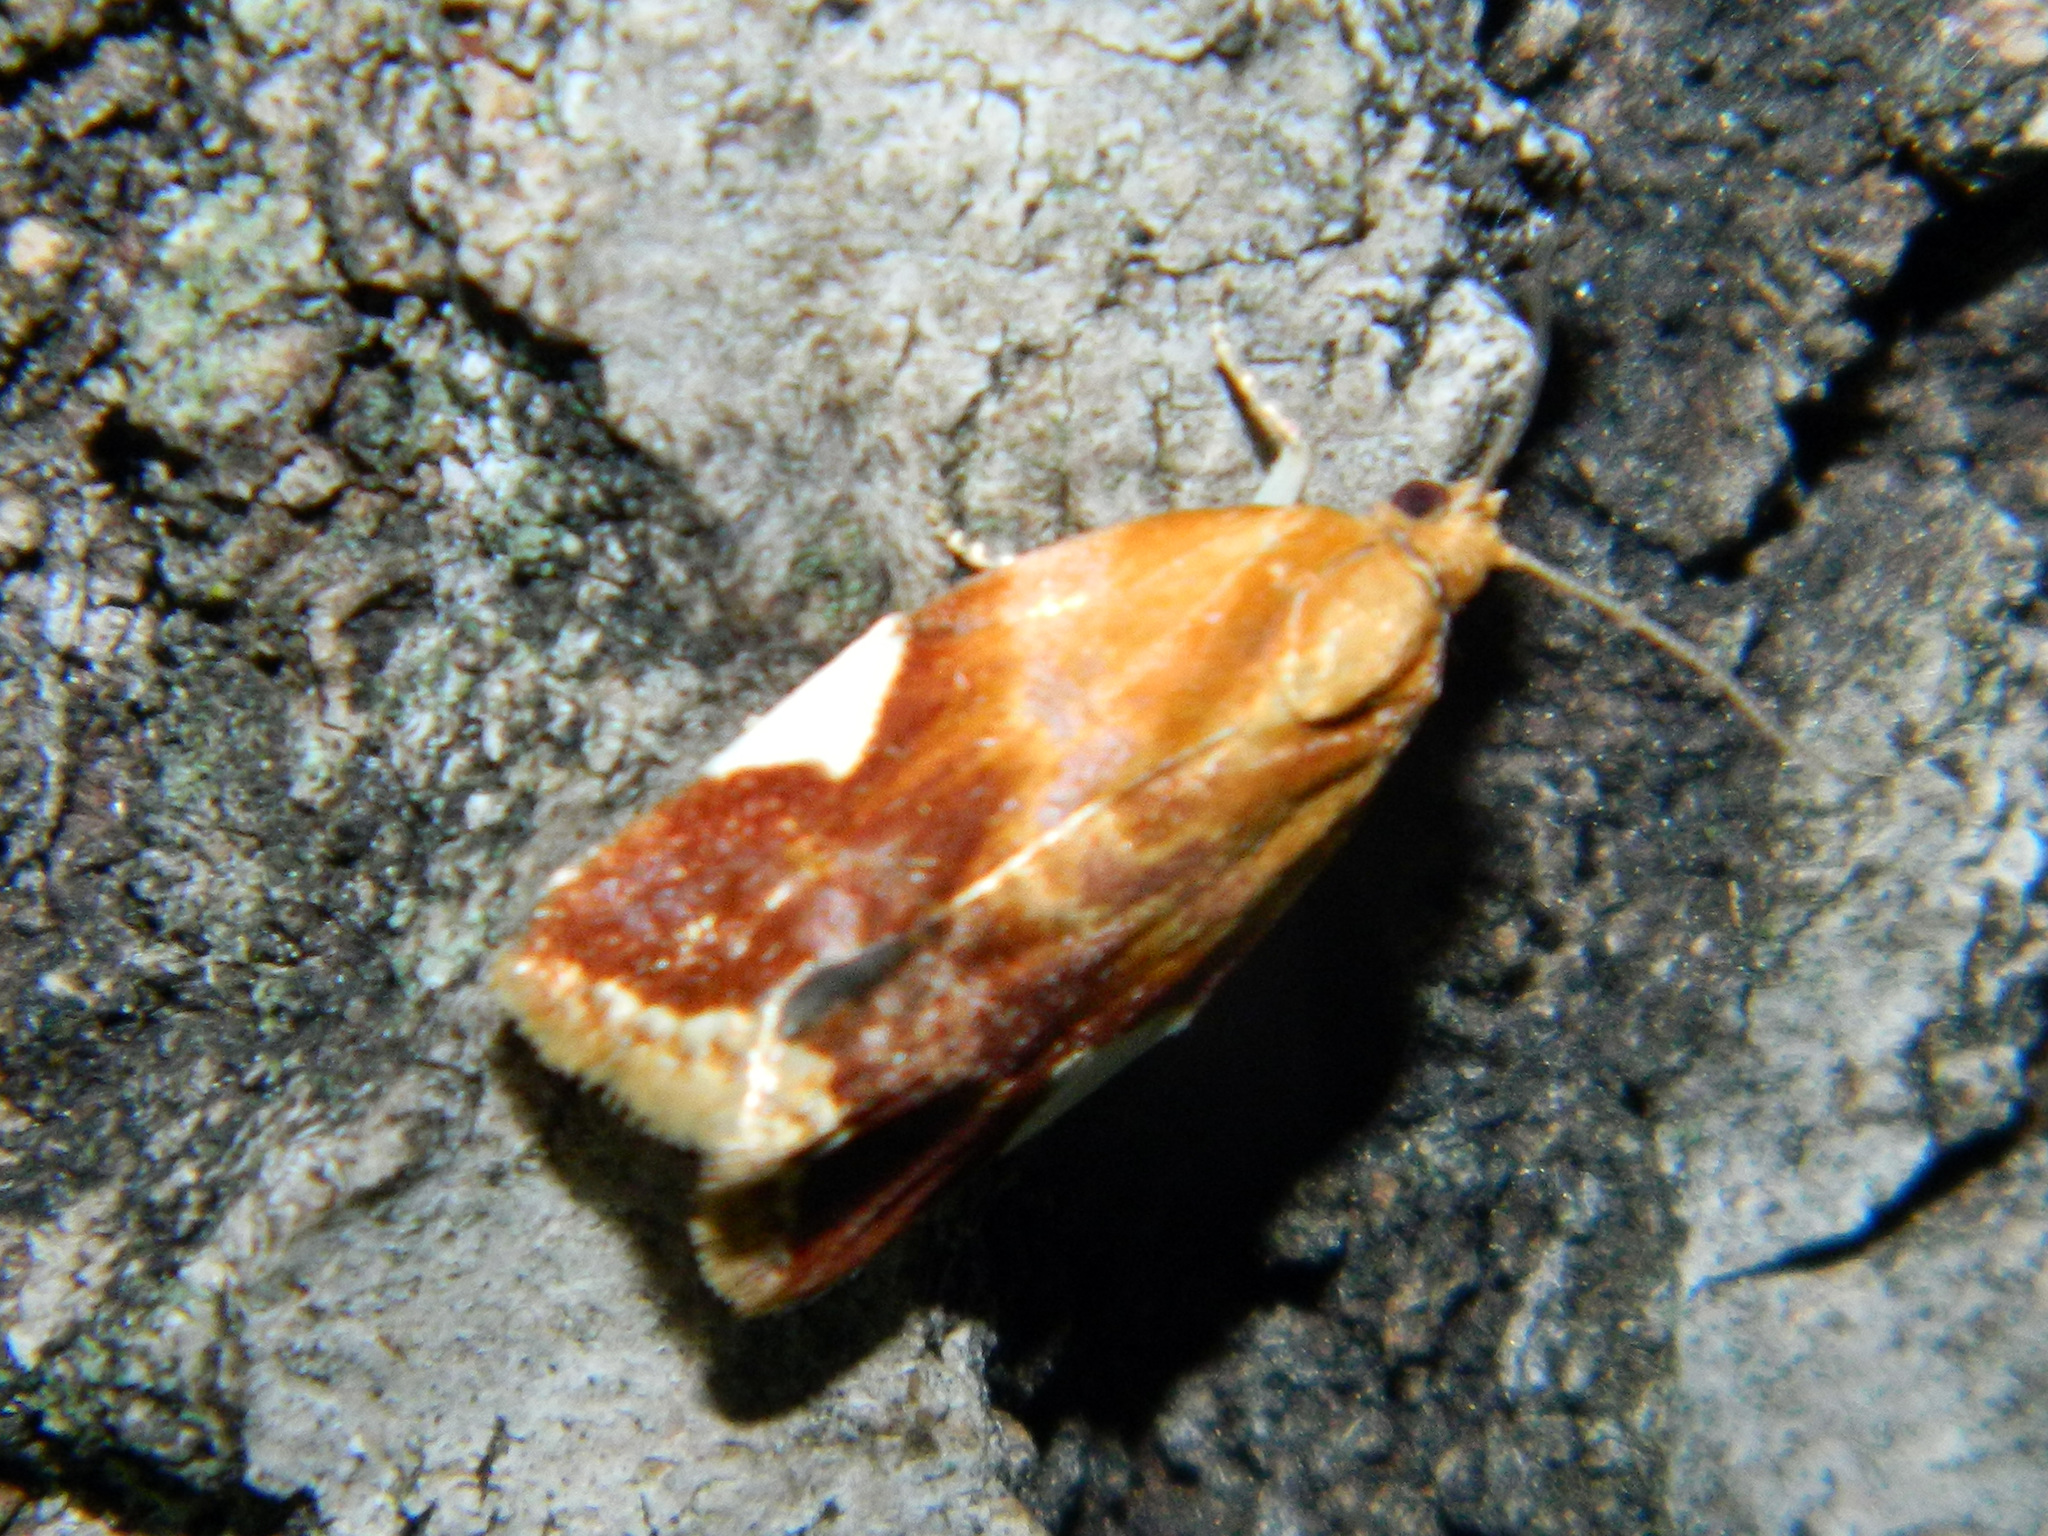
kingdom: Animalia
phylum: Arthropoda
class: Insecta
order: Lepidoptera
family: Tortricidae
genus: Clepsis
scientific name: Clepsis persicana
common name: White triangle tortrix
